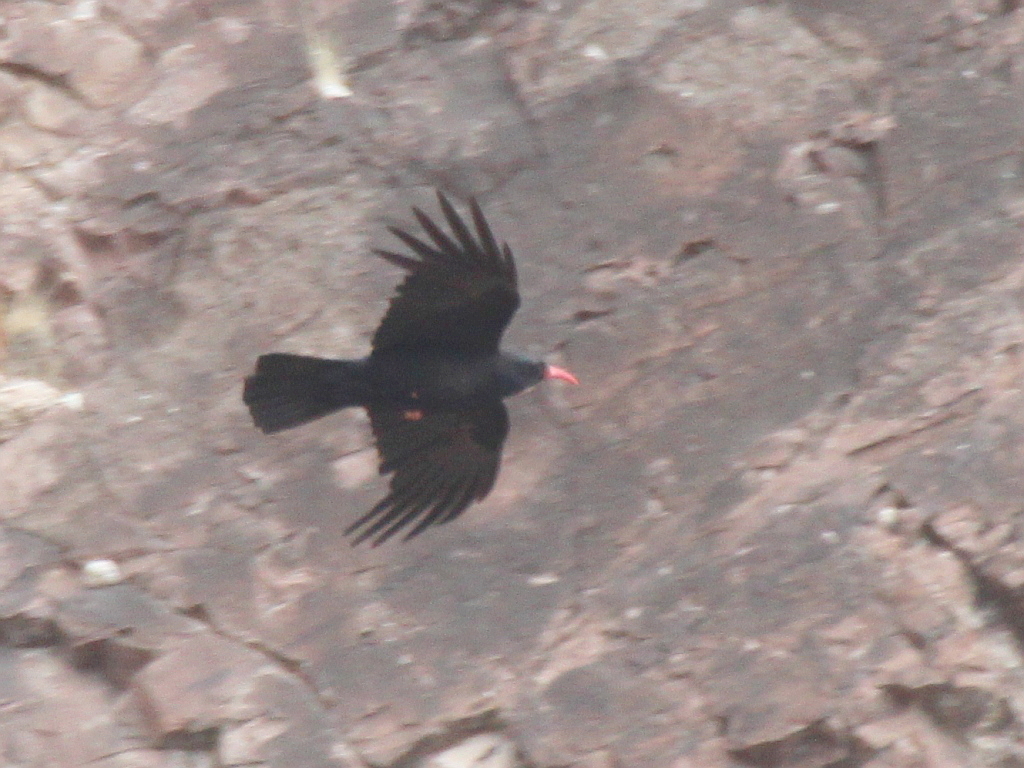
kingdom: Animalia
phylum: Chordata
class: Aves
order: Passeriformes
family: Corvidae
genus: Pyrrhocorax
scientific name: Pyrrhocorax pyrrhocorax
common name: Red-billed chough
